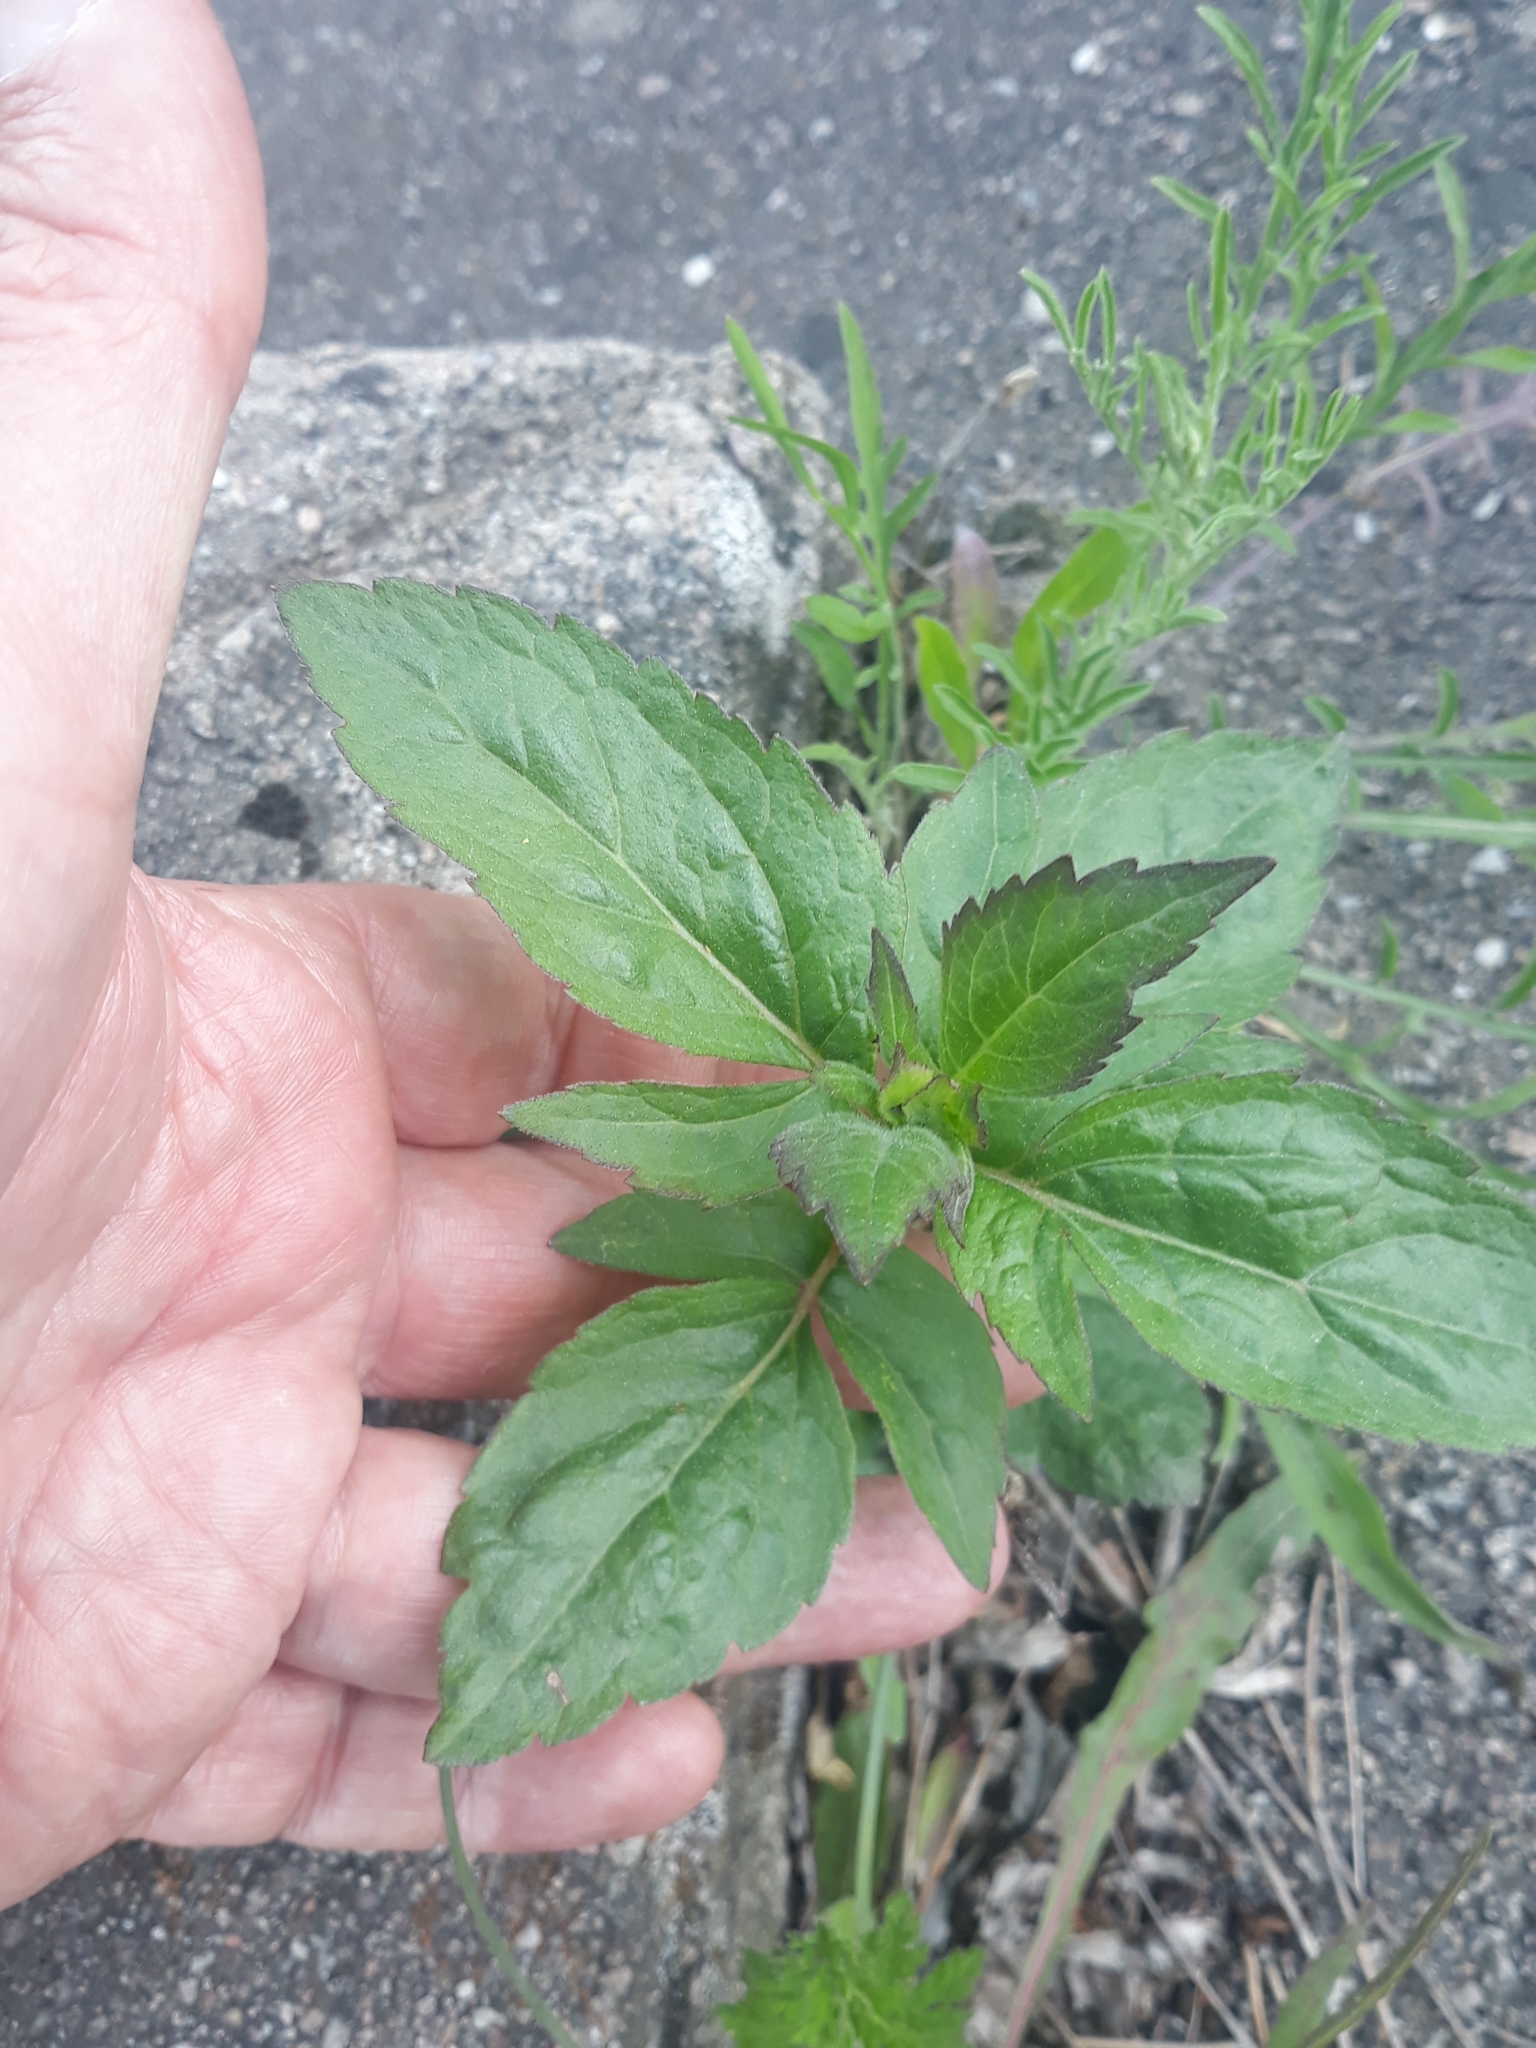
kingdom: Plantae
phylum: Tracheophyta
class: Magnoliopsida
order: Asterales
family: Asteraceae
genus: Eupatorium
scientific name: Eupatorium cannabinum
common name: Hemp-agrimony
